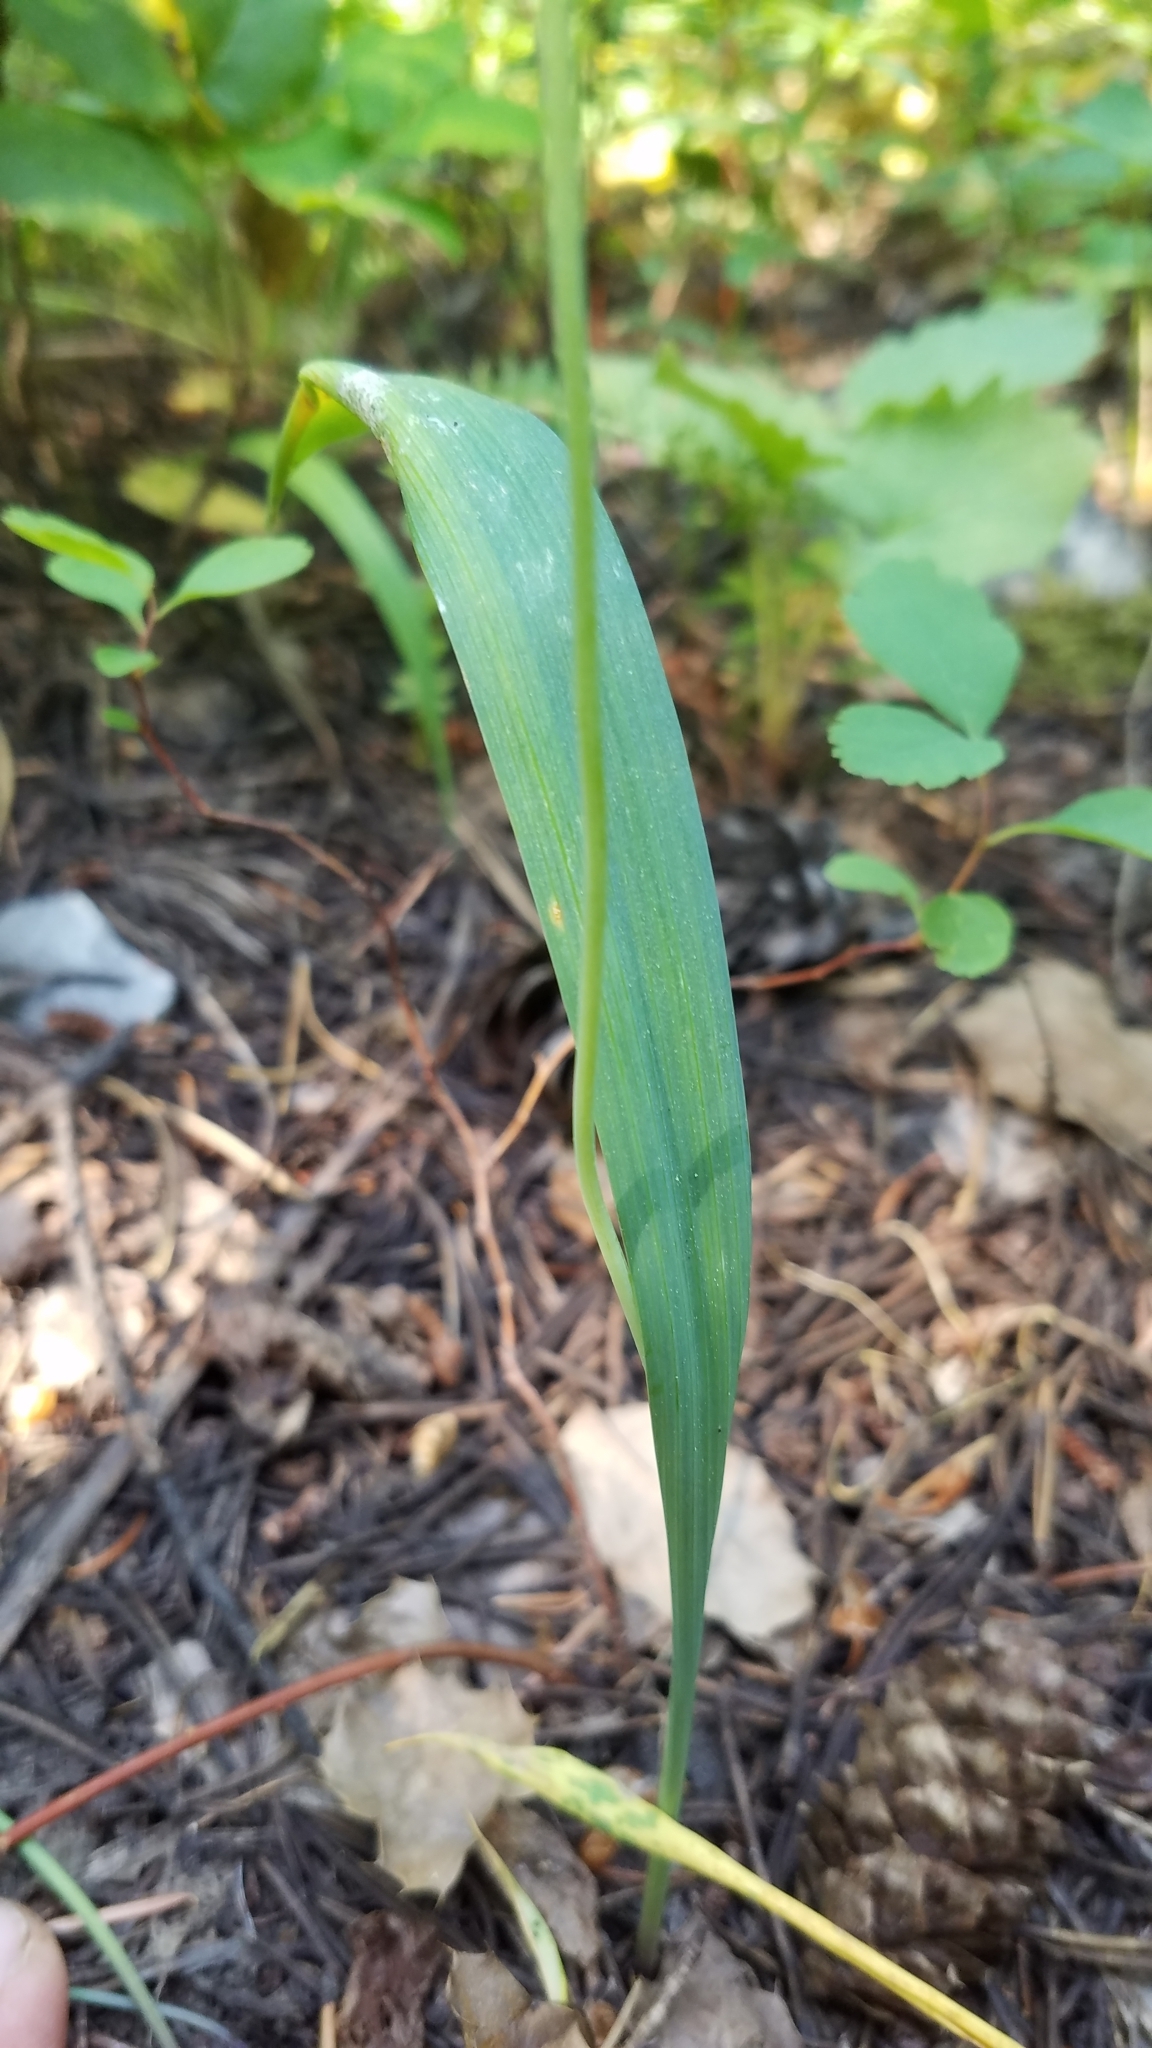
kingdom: Plantae
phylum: Tracheophyta
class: Liliopsida
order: Liliales
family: Liliaceae
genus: Calochortus
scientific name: Calochortus apiculatus
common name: Baker's mariposa lily
